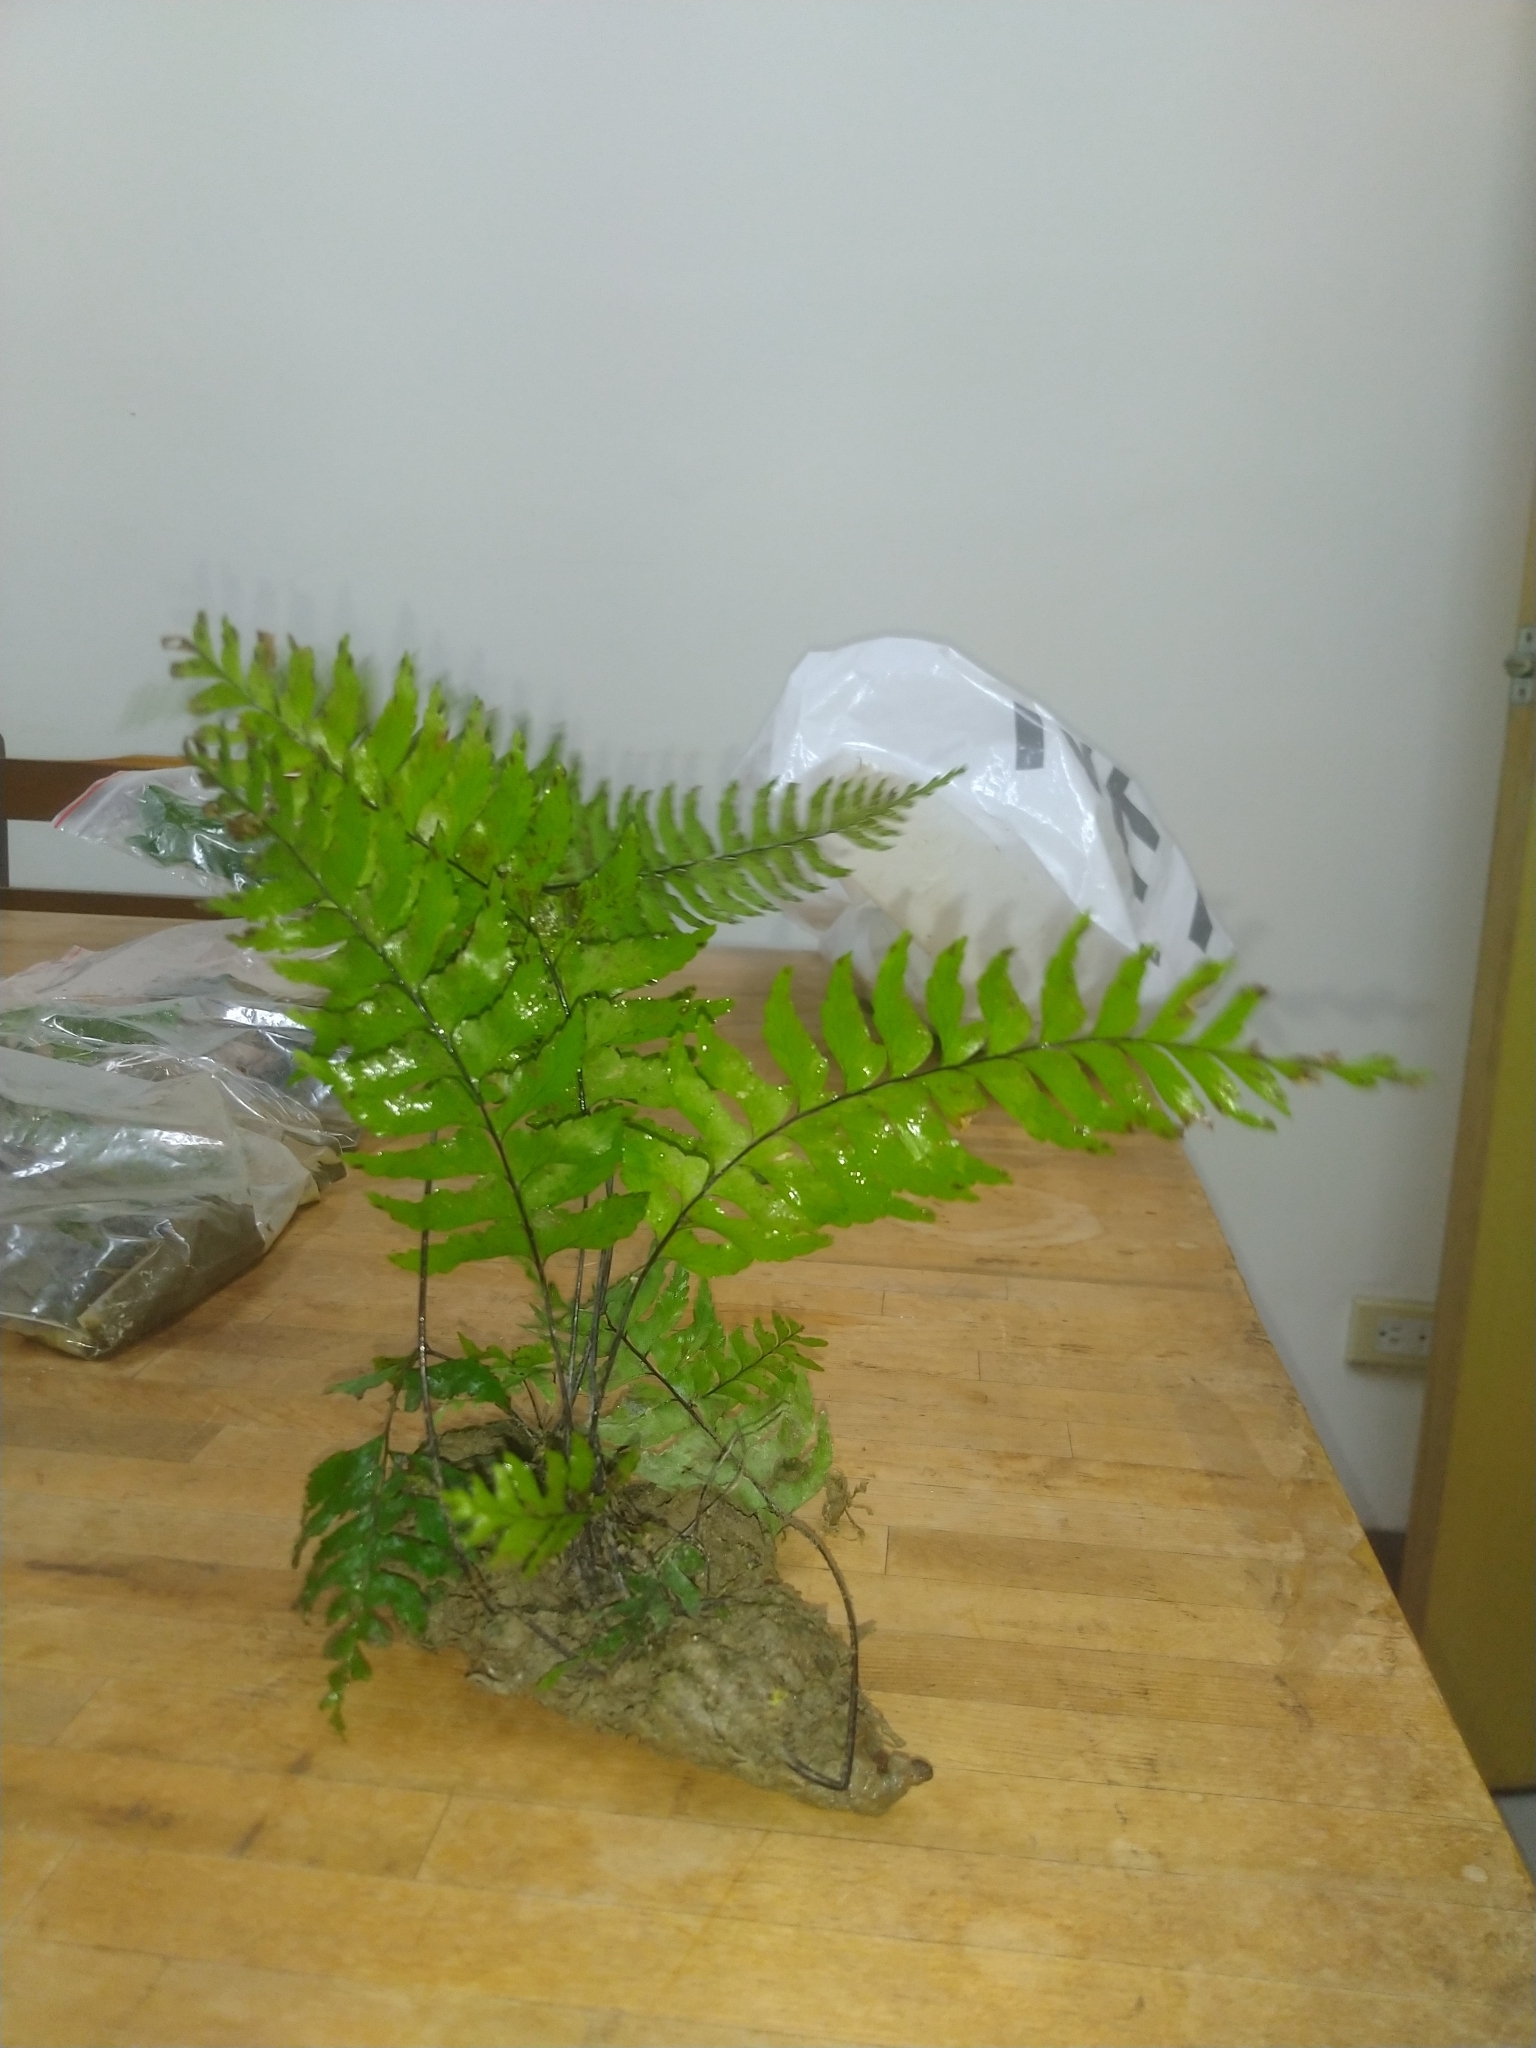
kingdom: Plantae
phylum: Tracheophyta
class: Polypodiopsida
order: Polypodiales
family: Aspleniaceae
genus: Hymenasplenium
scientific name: Hymenasplenium pubirhizoma
